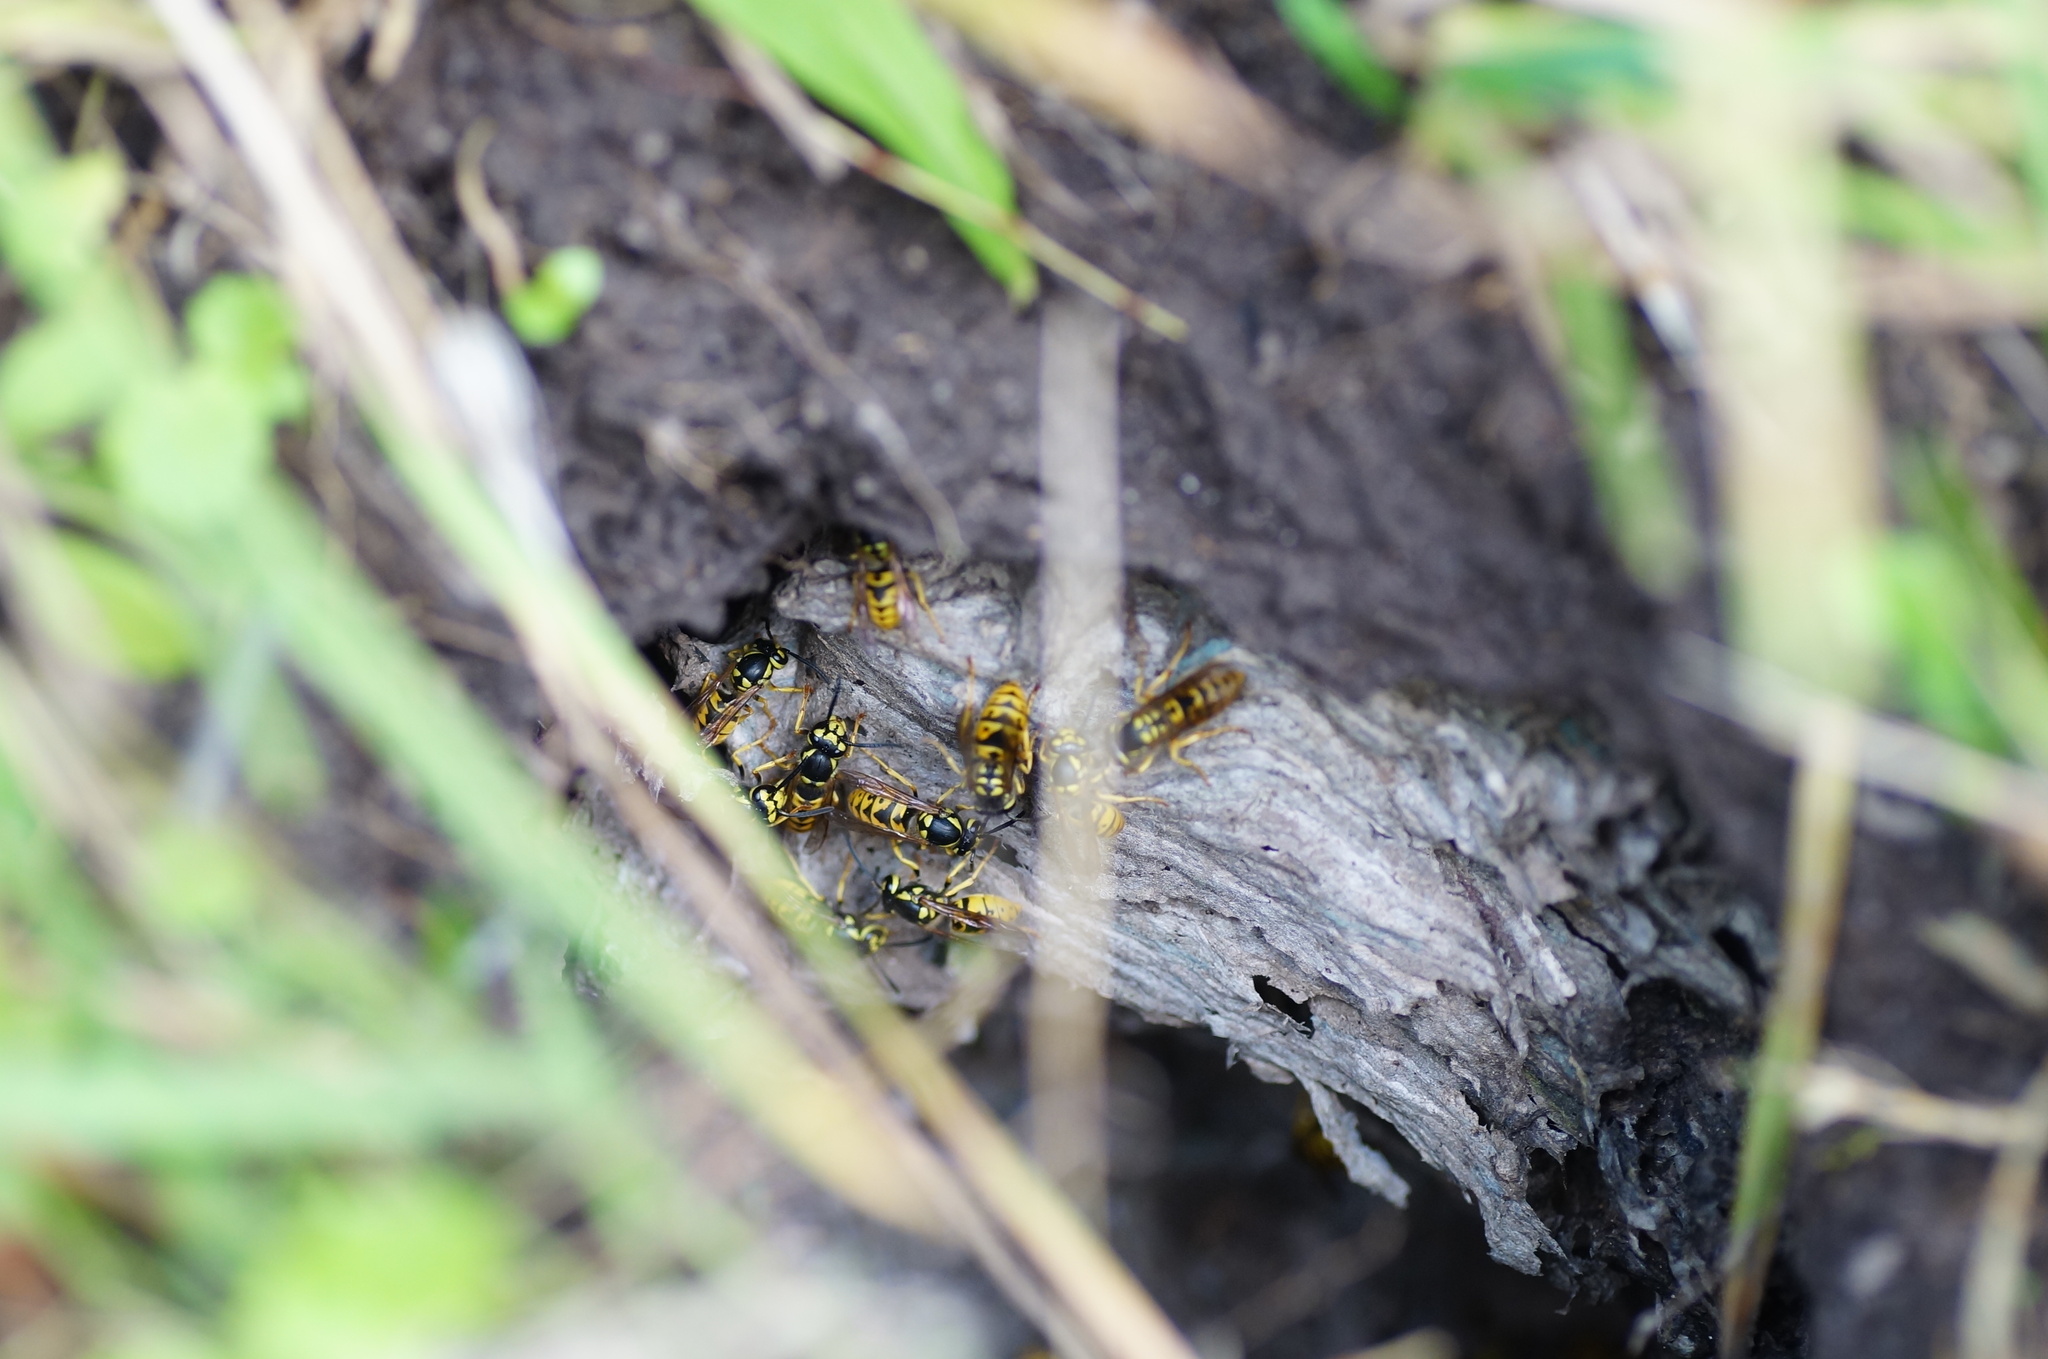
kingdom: Animalia
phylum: Arthropoda
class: Insecta
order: Hymenoptera
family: Vespidae
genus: Vespula
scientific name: Vespula germanica
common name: German wasp
